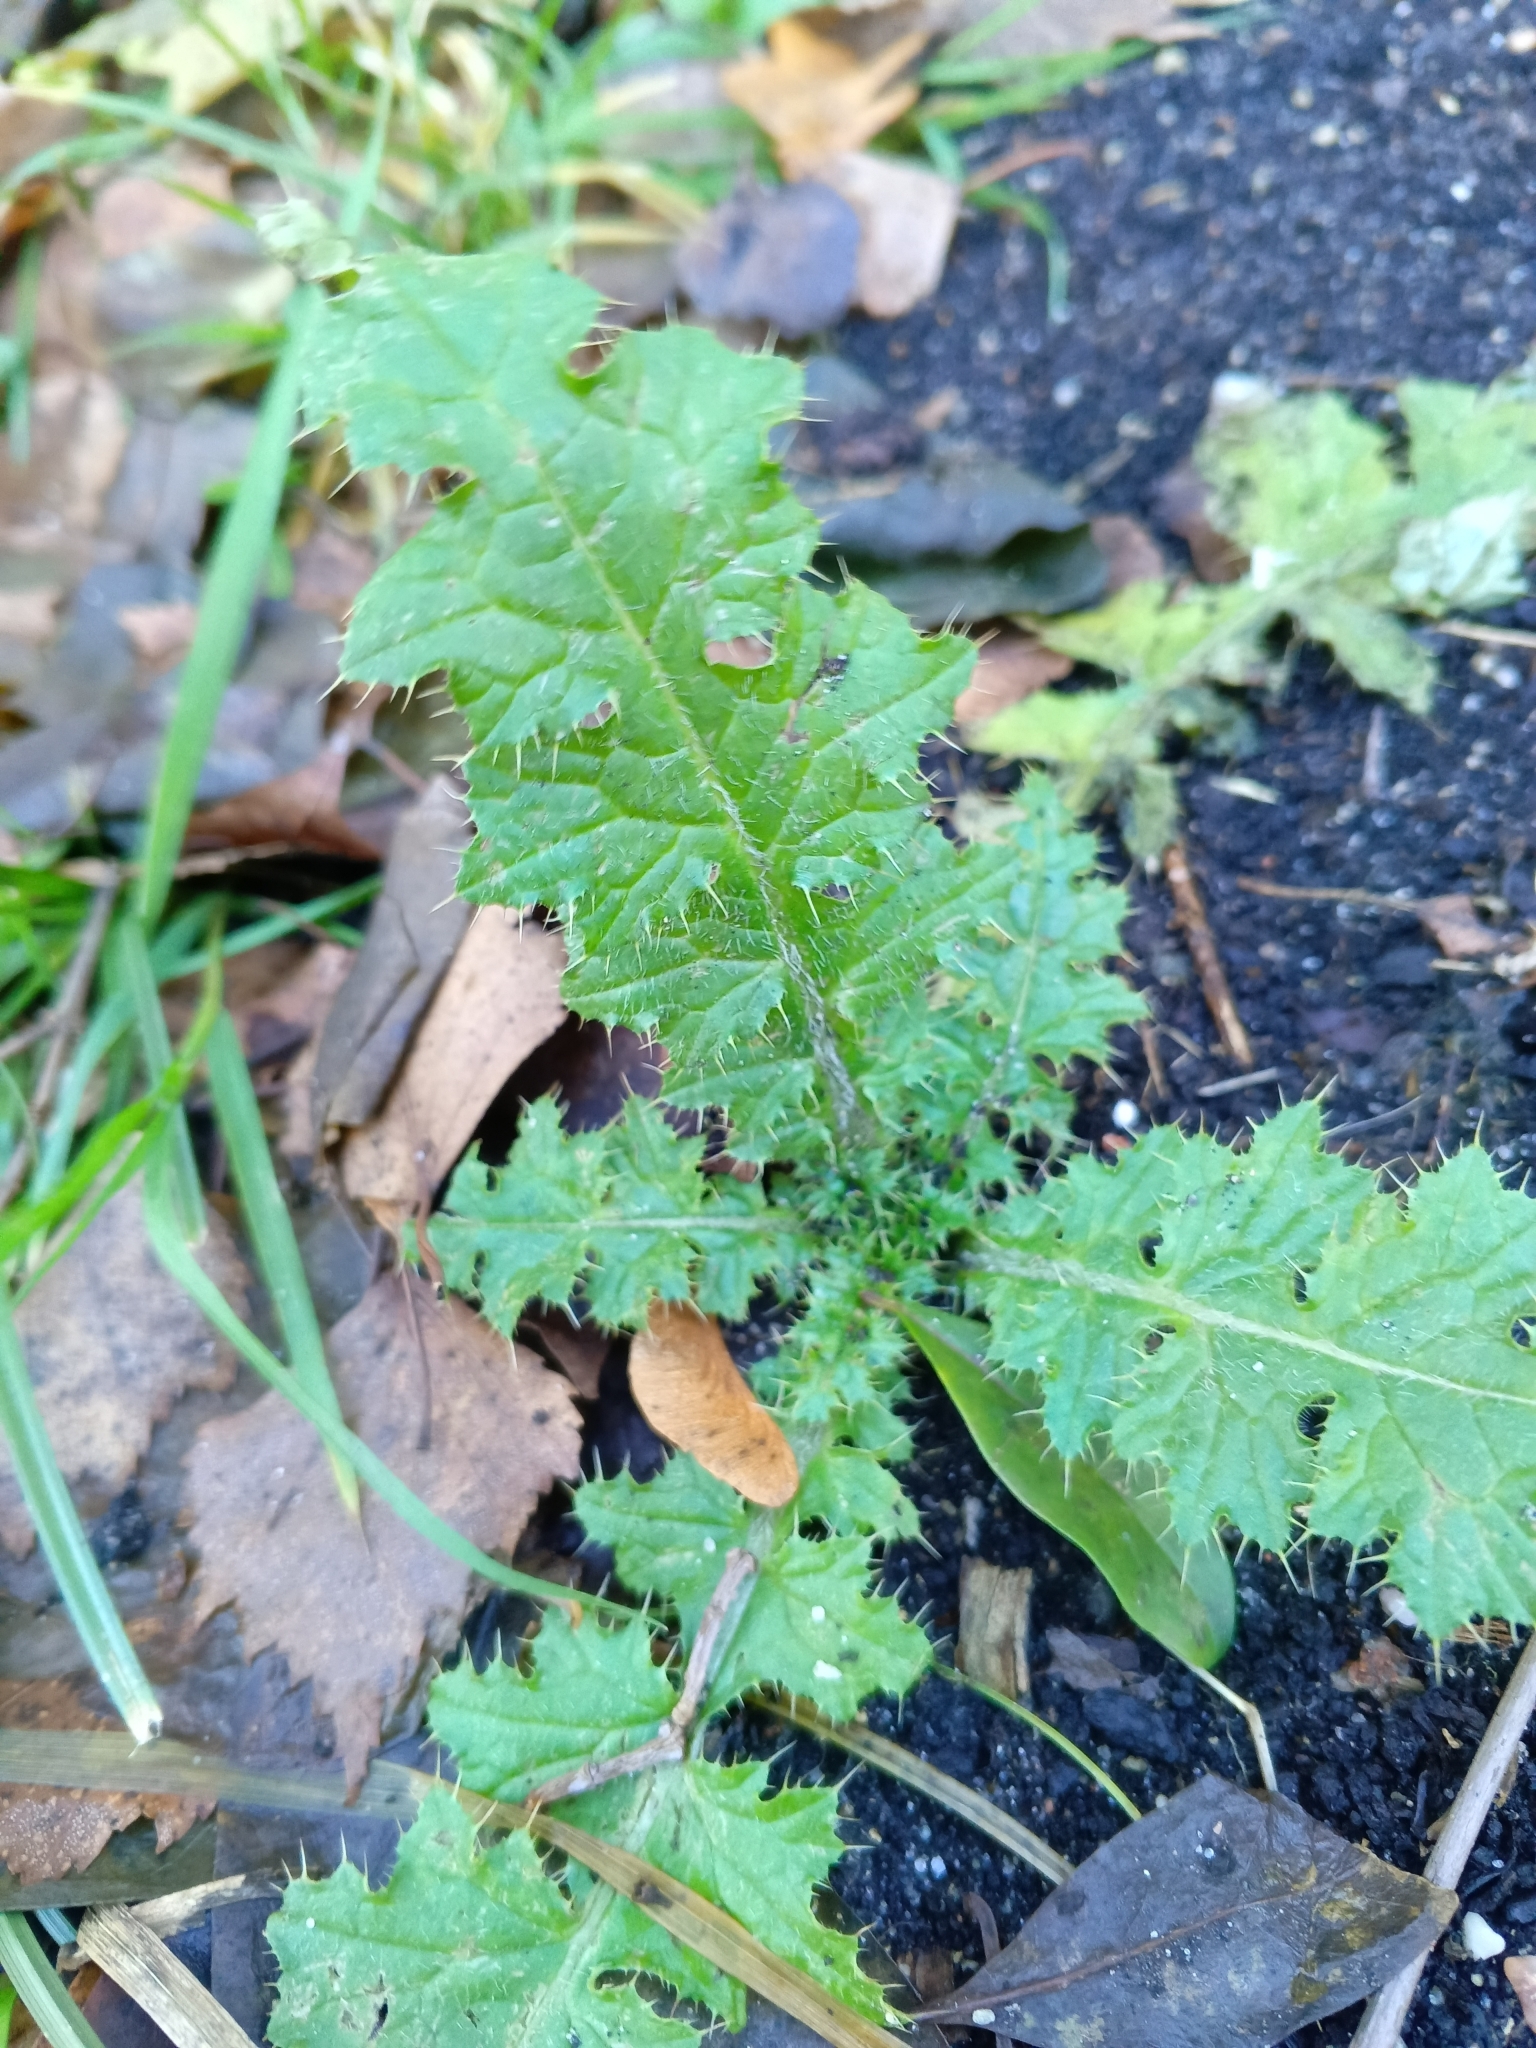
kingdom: Plantae
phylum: Tracheophyta
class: Magnoliopsida
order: Asterales
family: Asteraceae
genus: Carduus
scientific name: Carduus crispus
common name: Welted thistle
